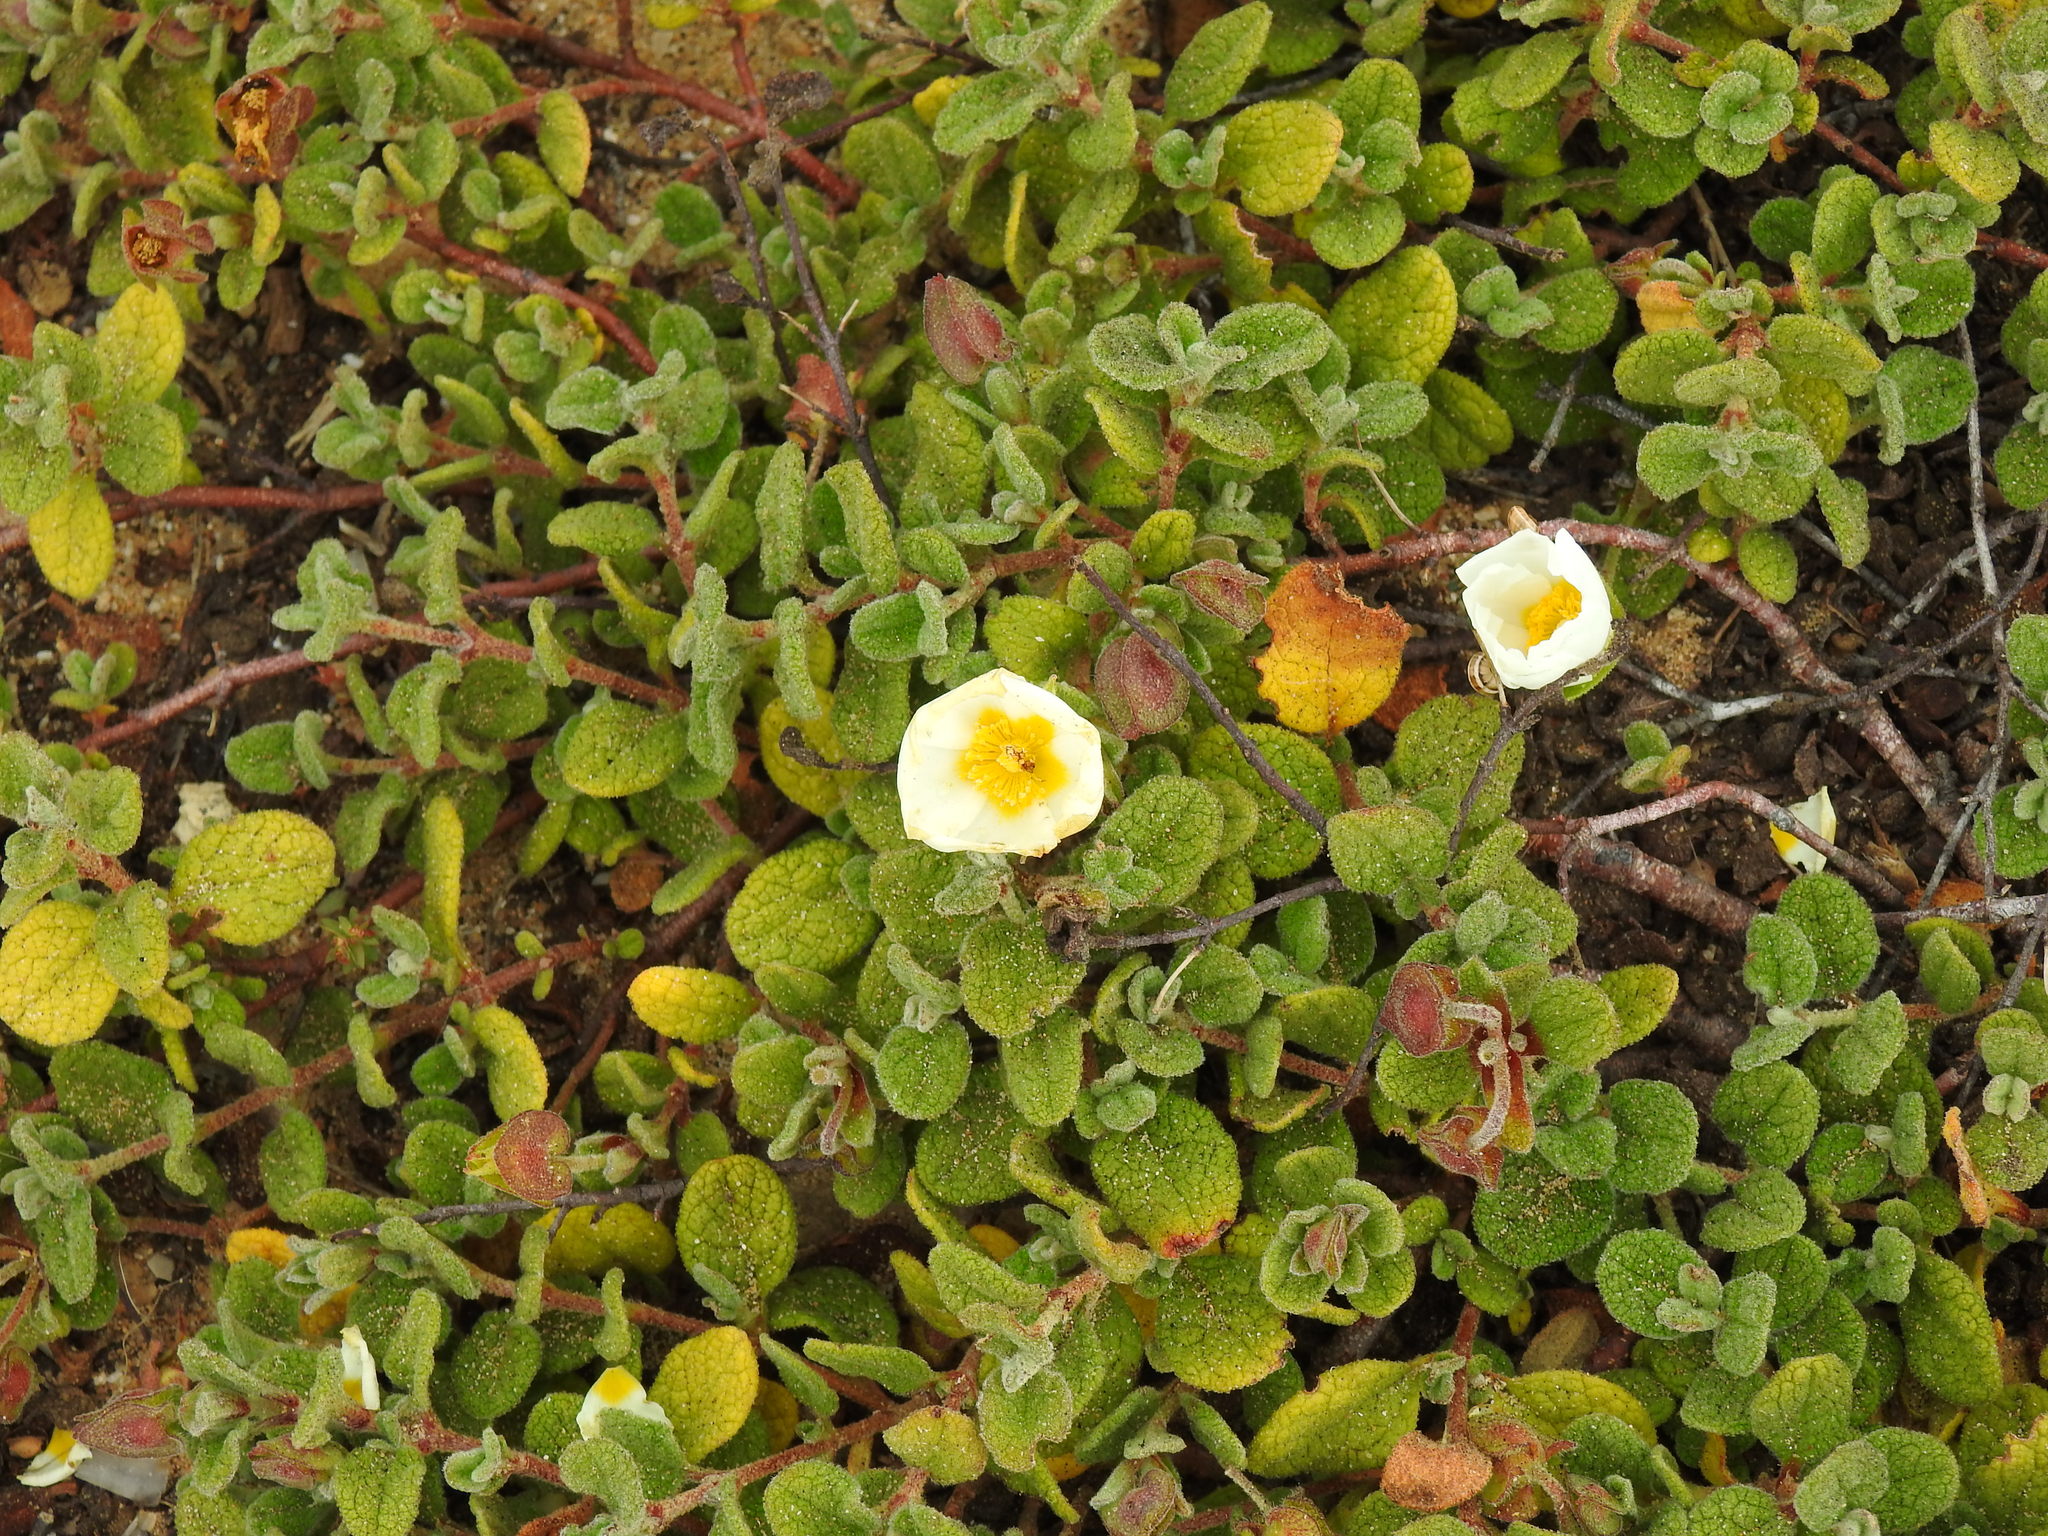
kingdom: Plantae
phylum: Tracheophyta
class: Magnoliopsida
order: Malvales
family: Cistaceae
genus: Cistus
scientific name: Cistus salviifolius
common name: Salvia cistus
